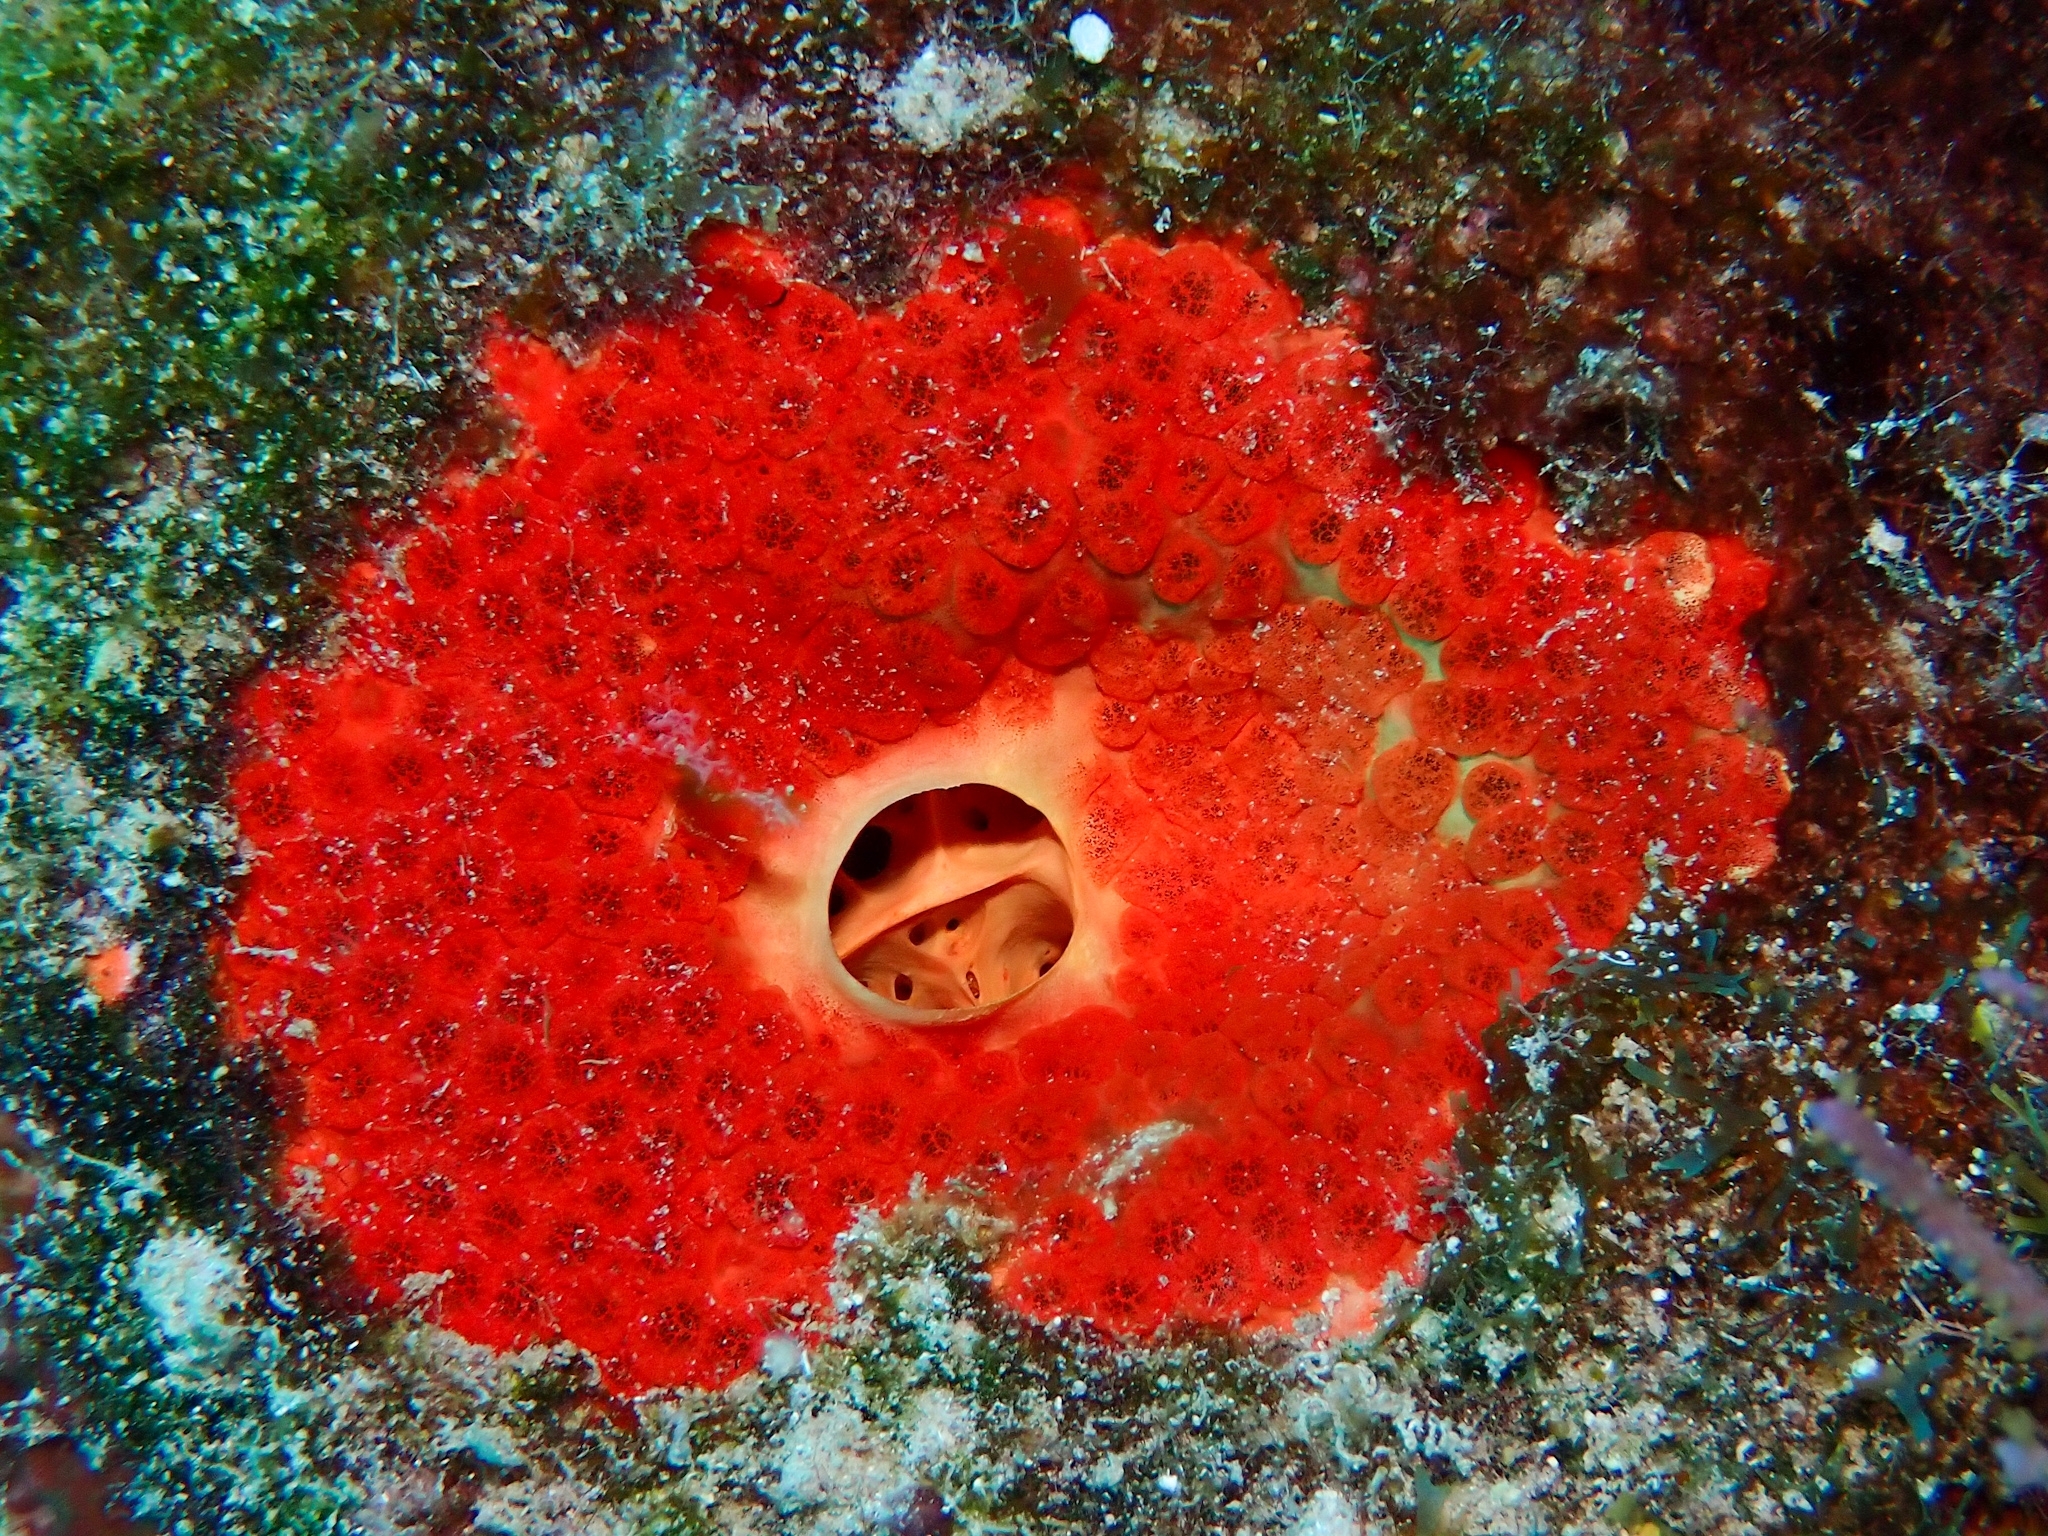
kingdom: Animalia
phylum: Porifera
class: Demospongiae
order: Clionaida
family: Clionaidae
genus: Cliothosa
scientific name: Cliothosa delitrix
